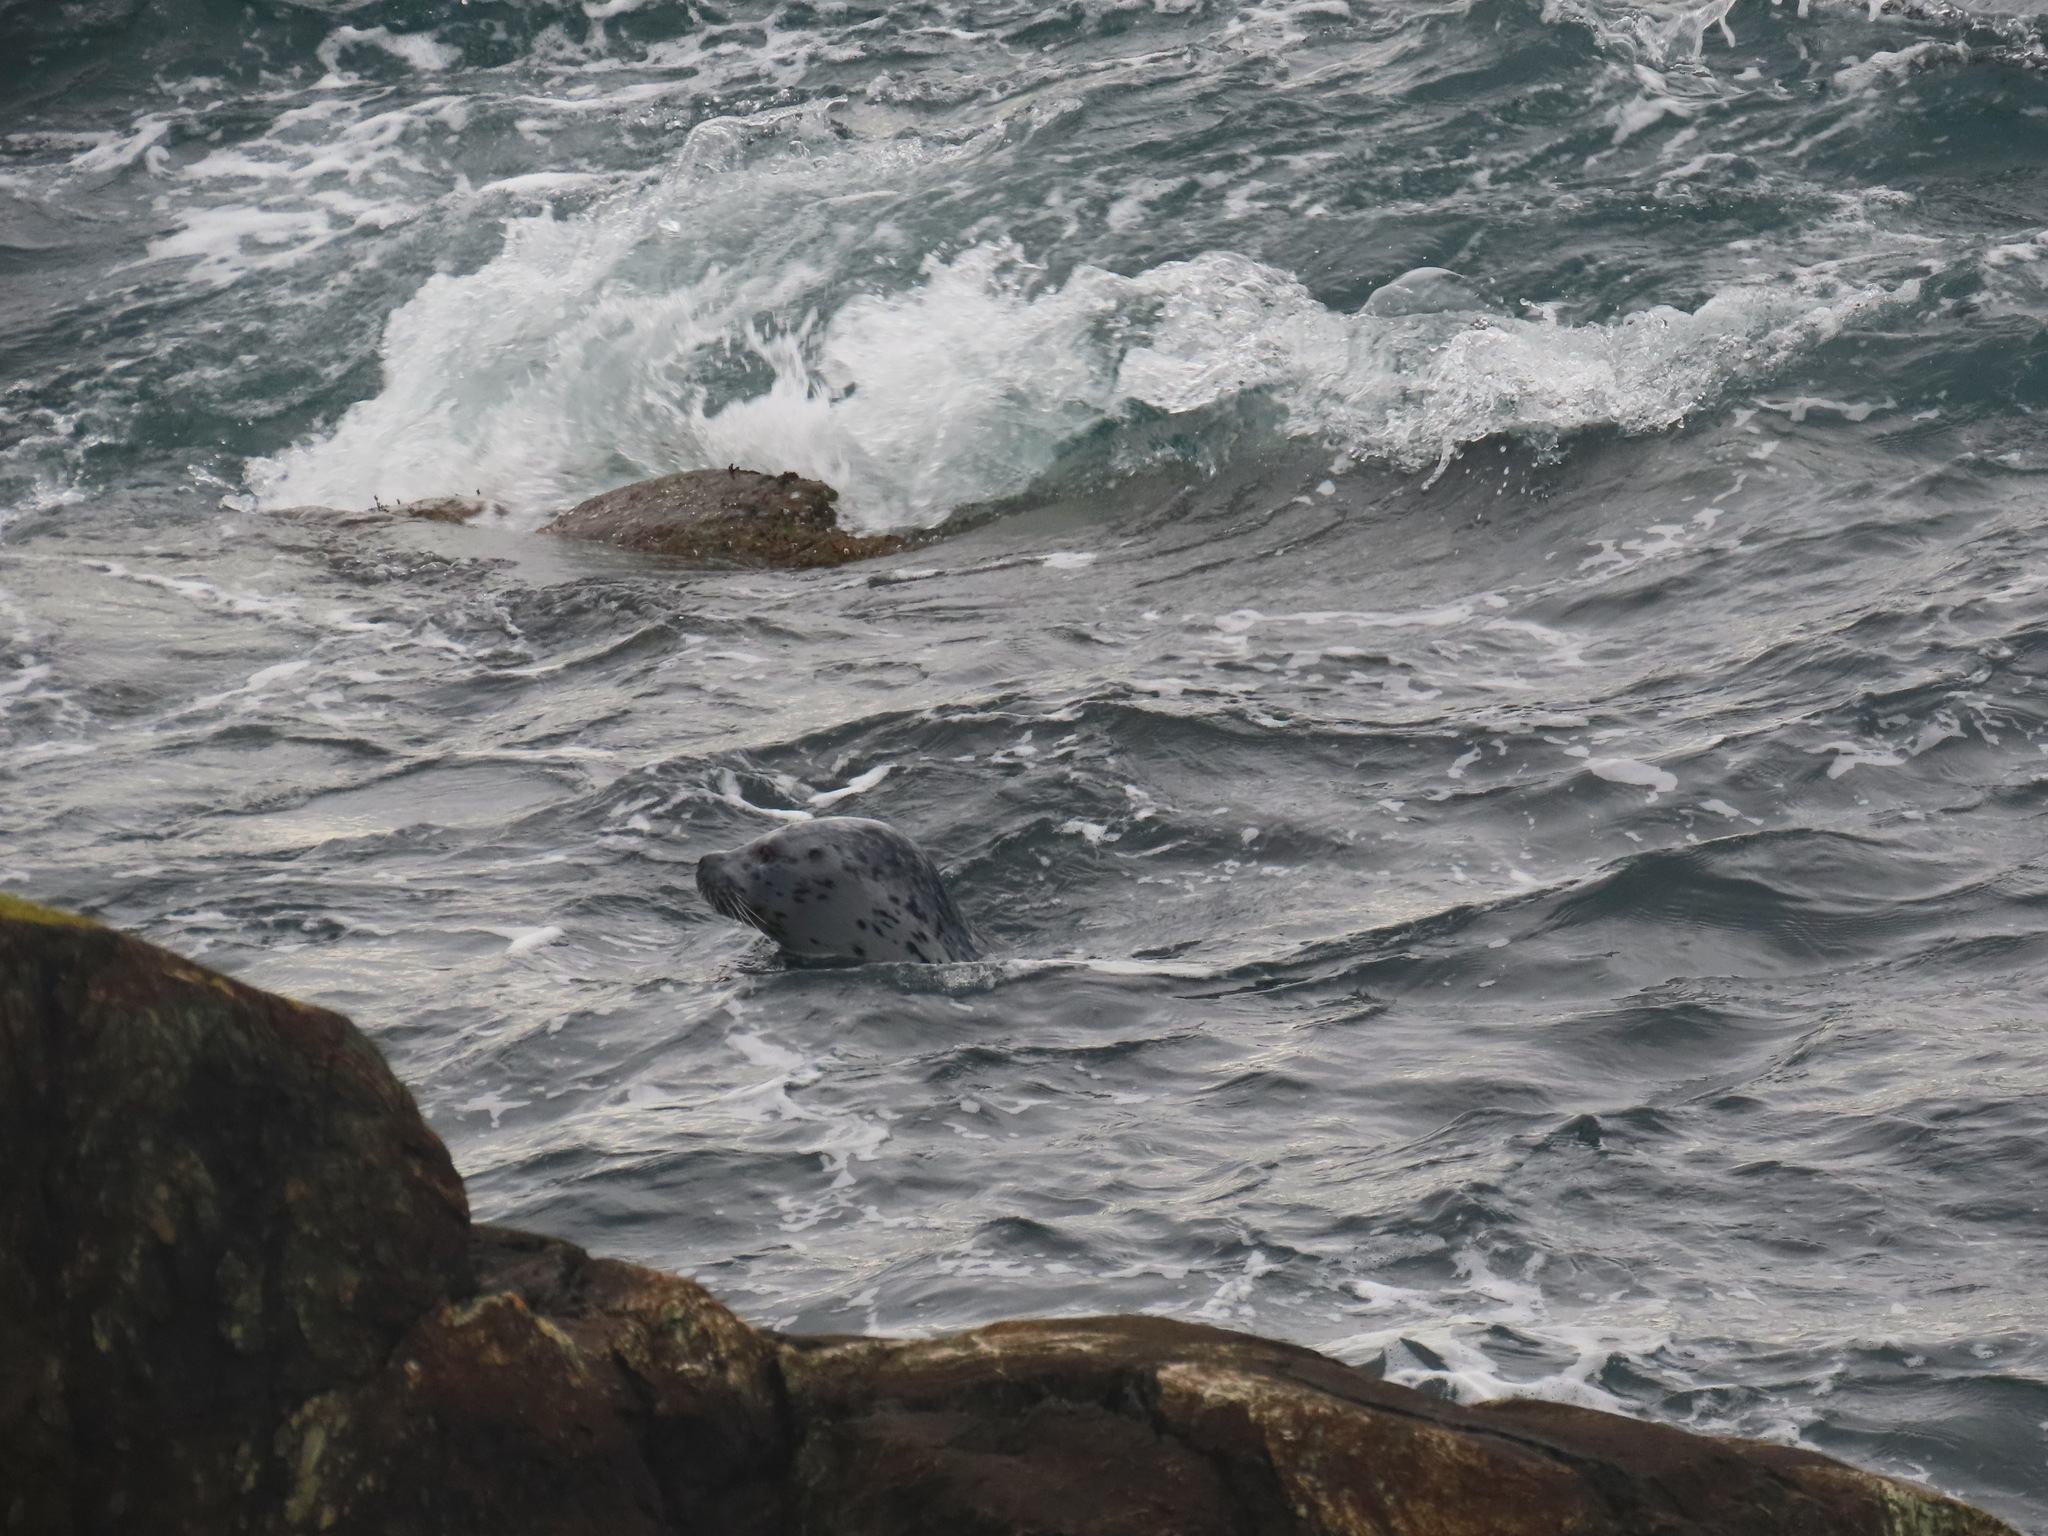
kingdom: Animalia
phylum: Chordata
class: Mammalia
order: Carnivora
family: Phocidae
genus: Phoca
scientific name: Phoca vitulina
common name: Harbor seal
